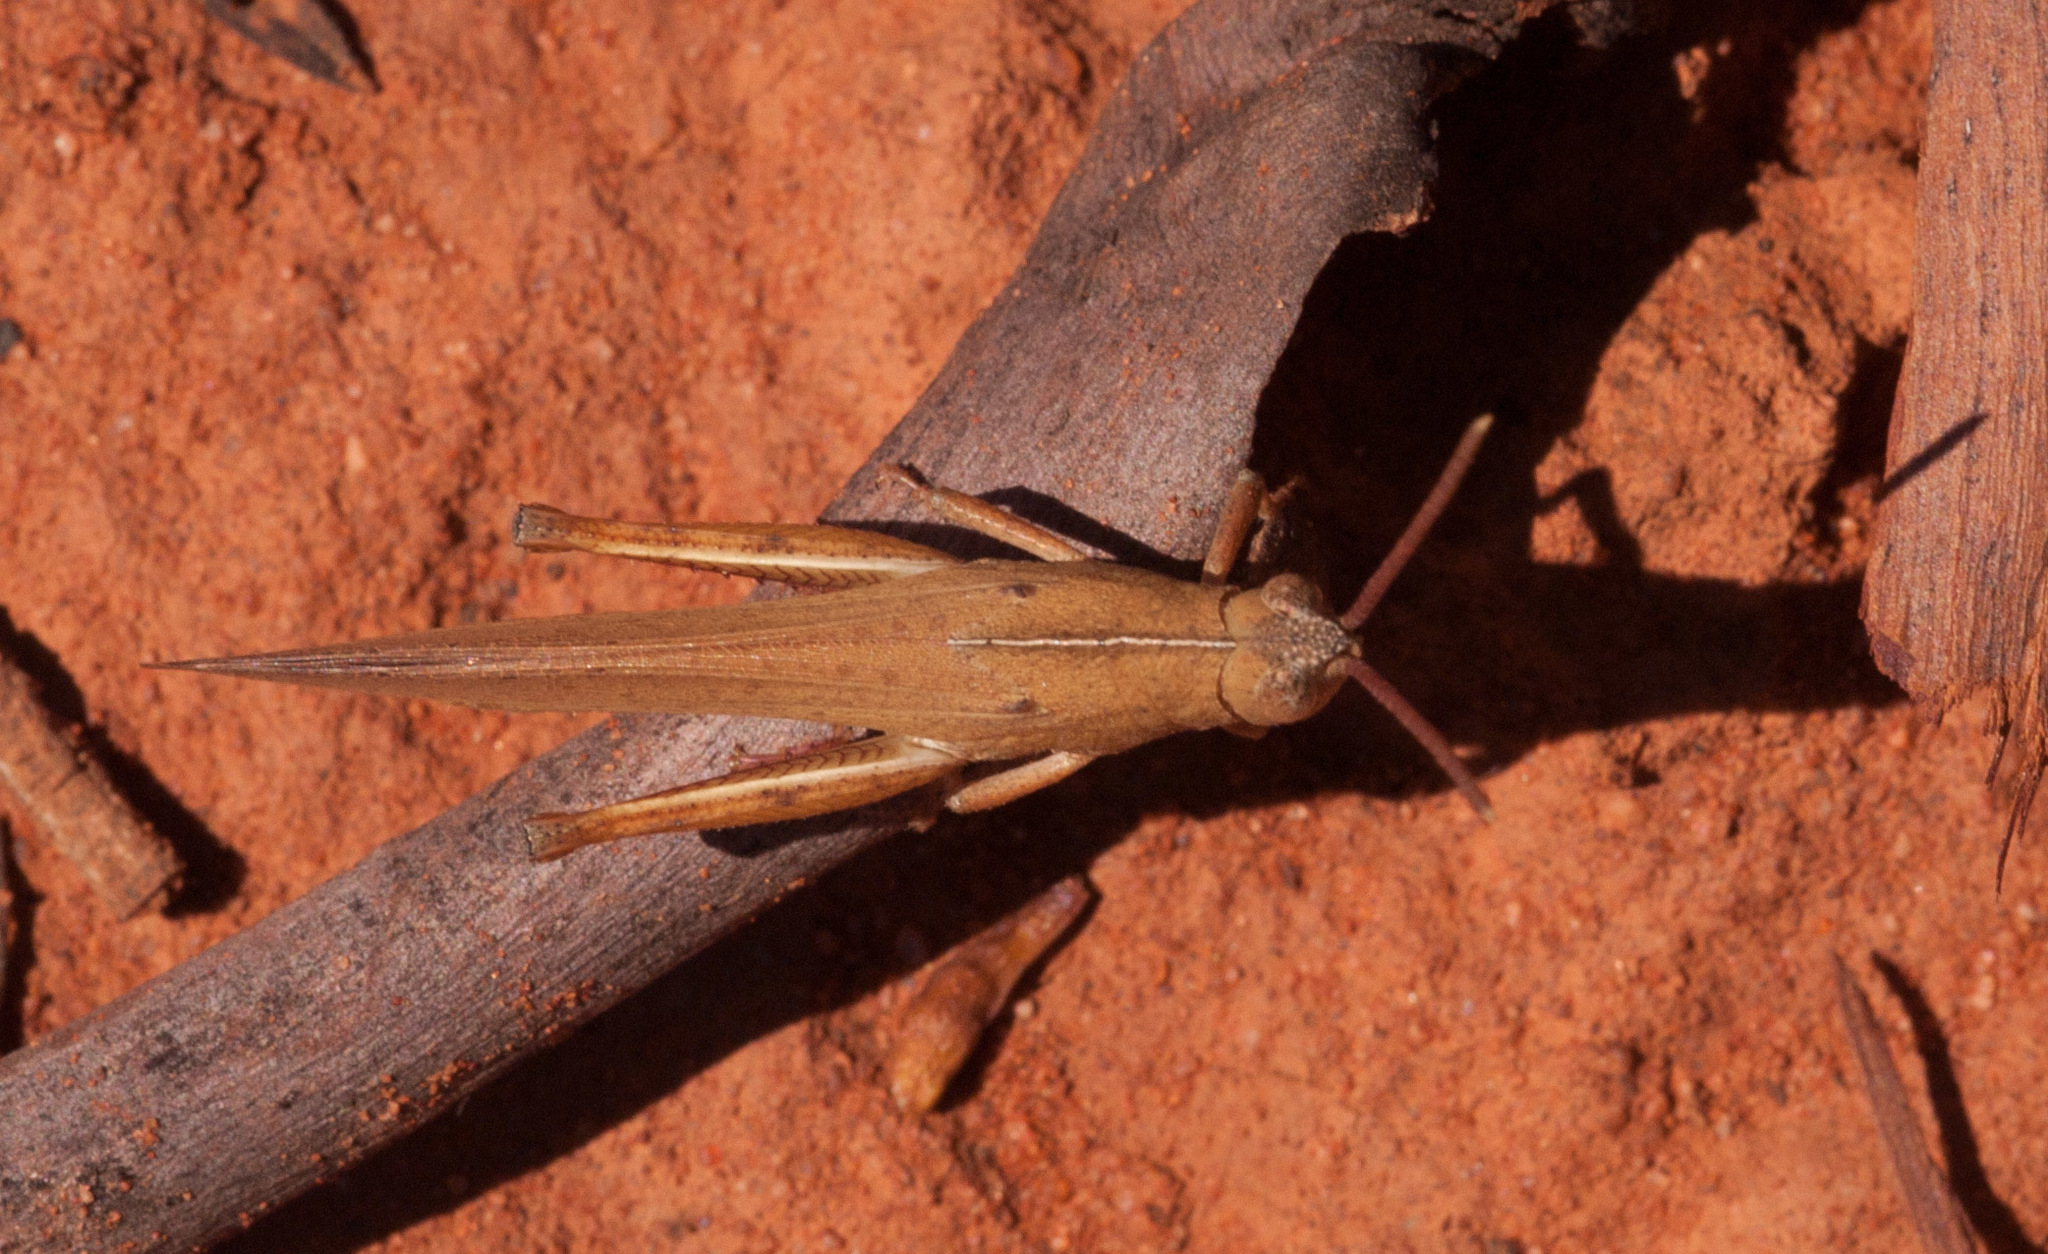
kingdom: Animalia
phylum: Arthropoda
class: Insecta
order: Orthoptera
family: Acrididae
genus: Goniaea
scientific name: Goniaea vocans
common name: Slender gumleaf grasshopper
